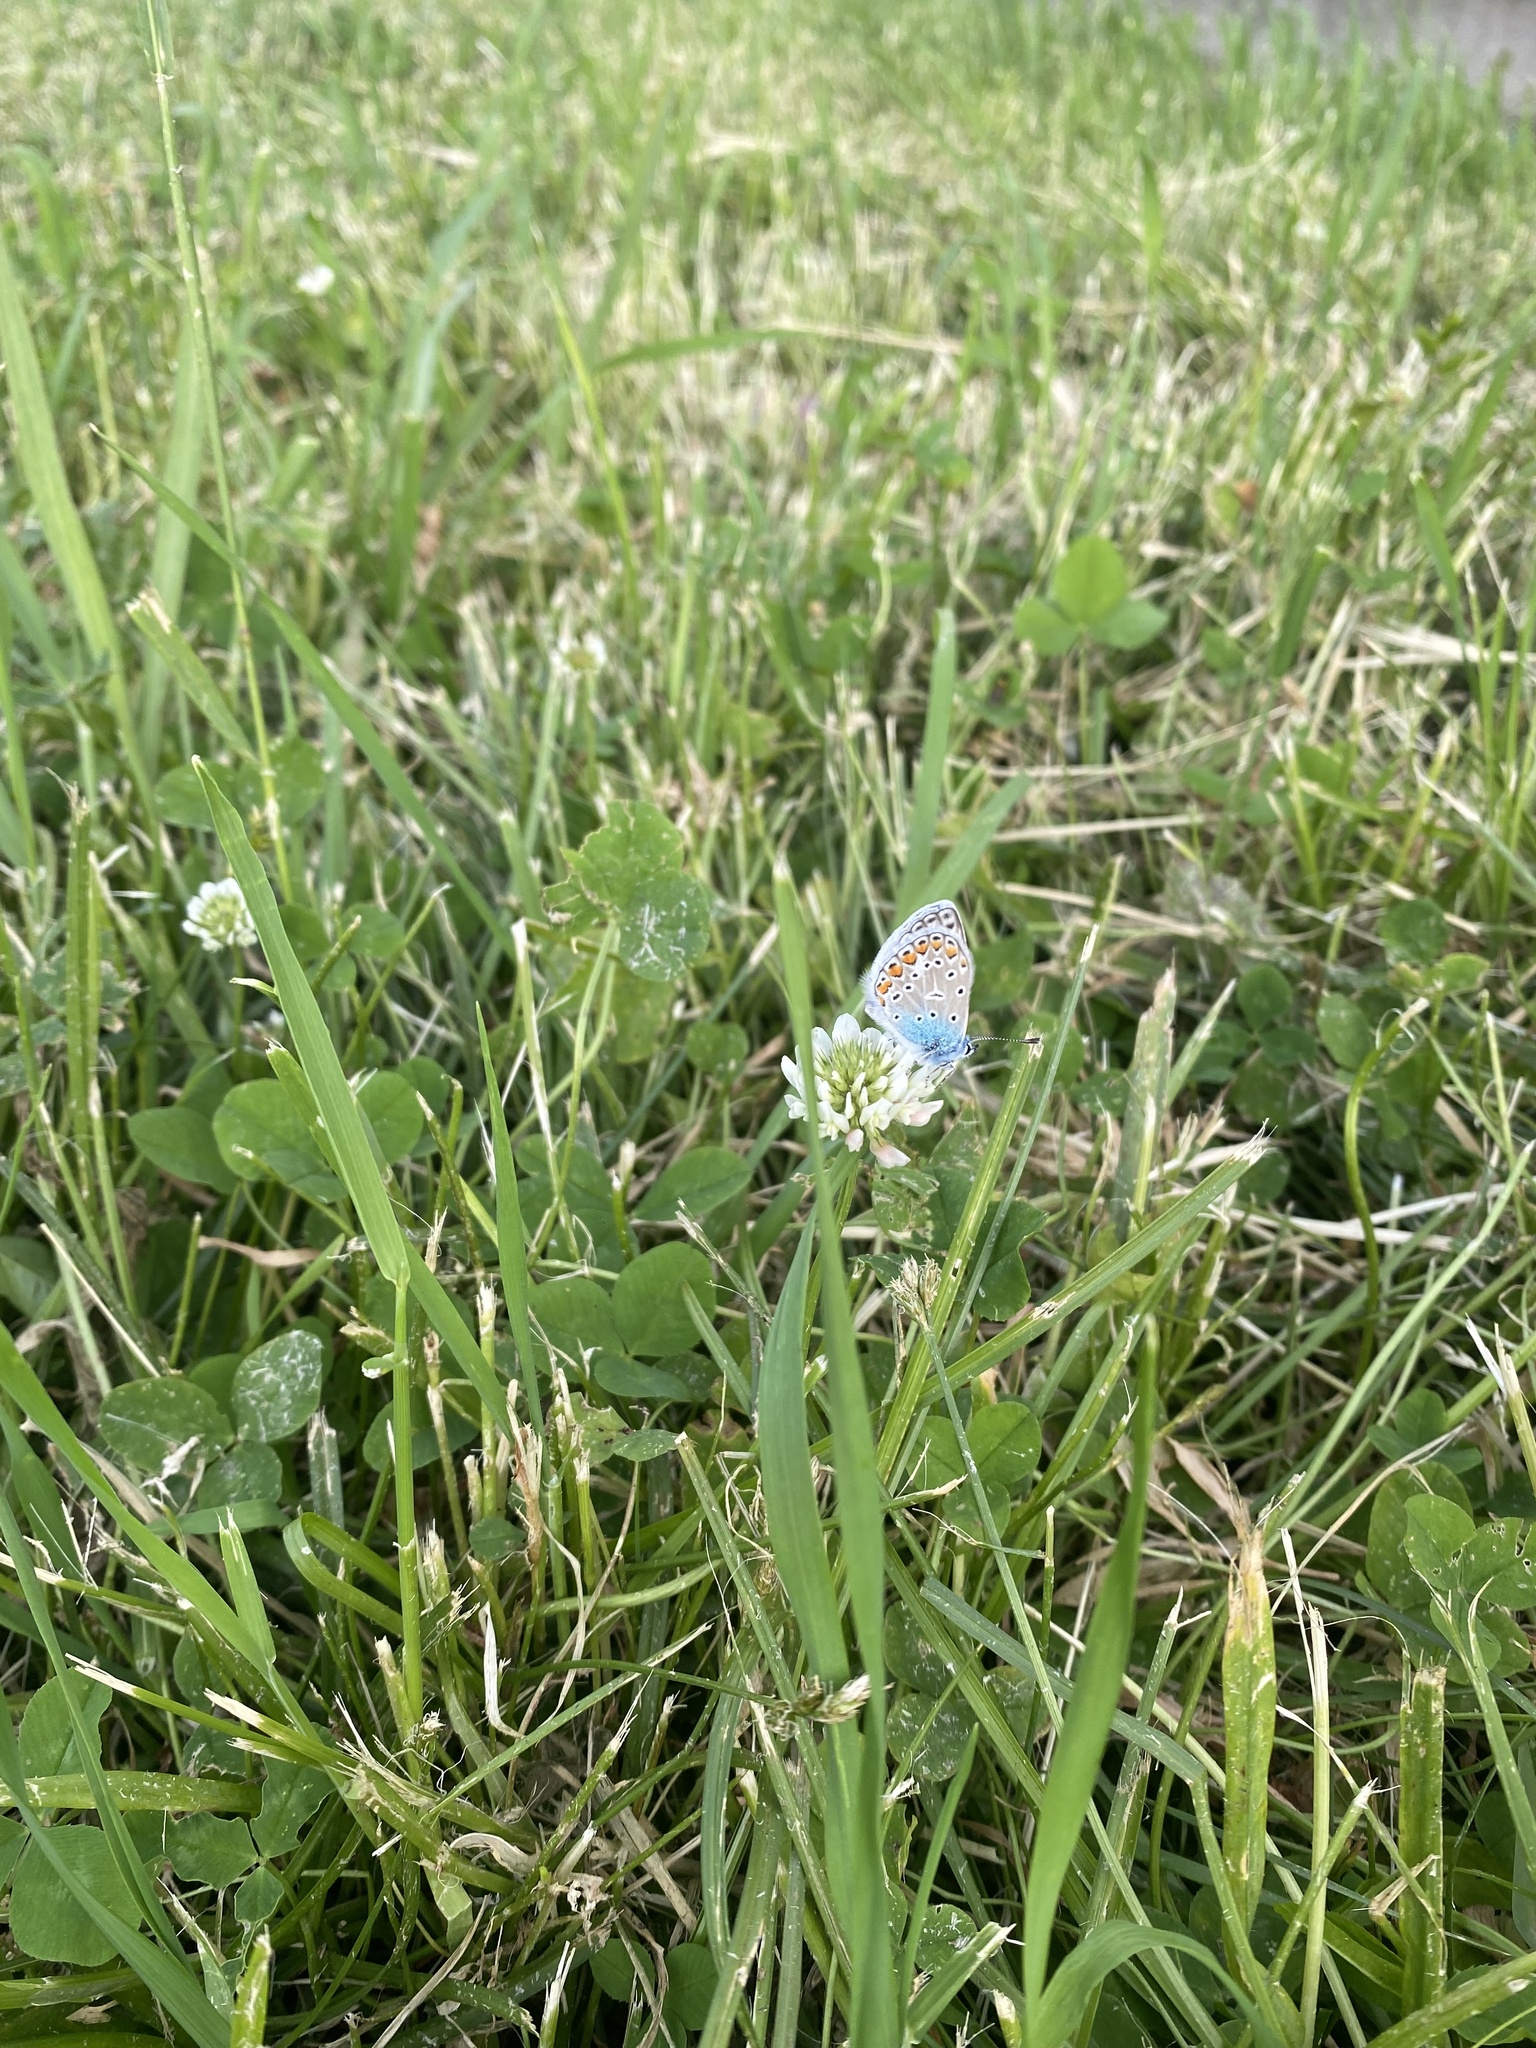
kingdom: Animalia
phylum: Arthropoda
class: Insecta
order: Lepidoptera
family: Lycaenidae
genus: Polyommatus
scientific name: Polyommatus icarus
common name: Common blue
